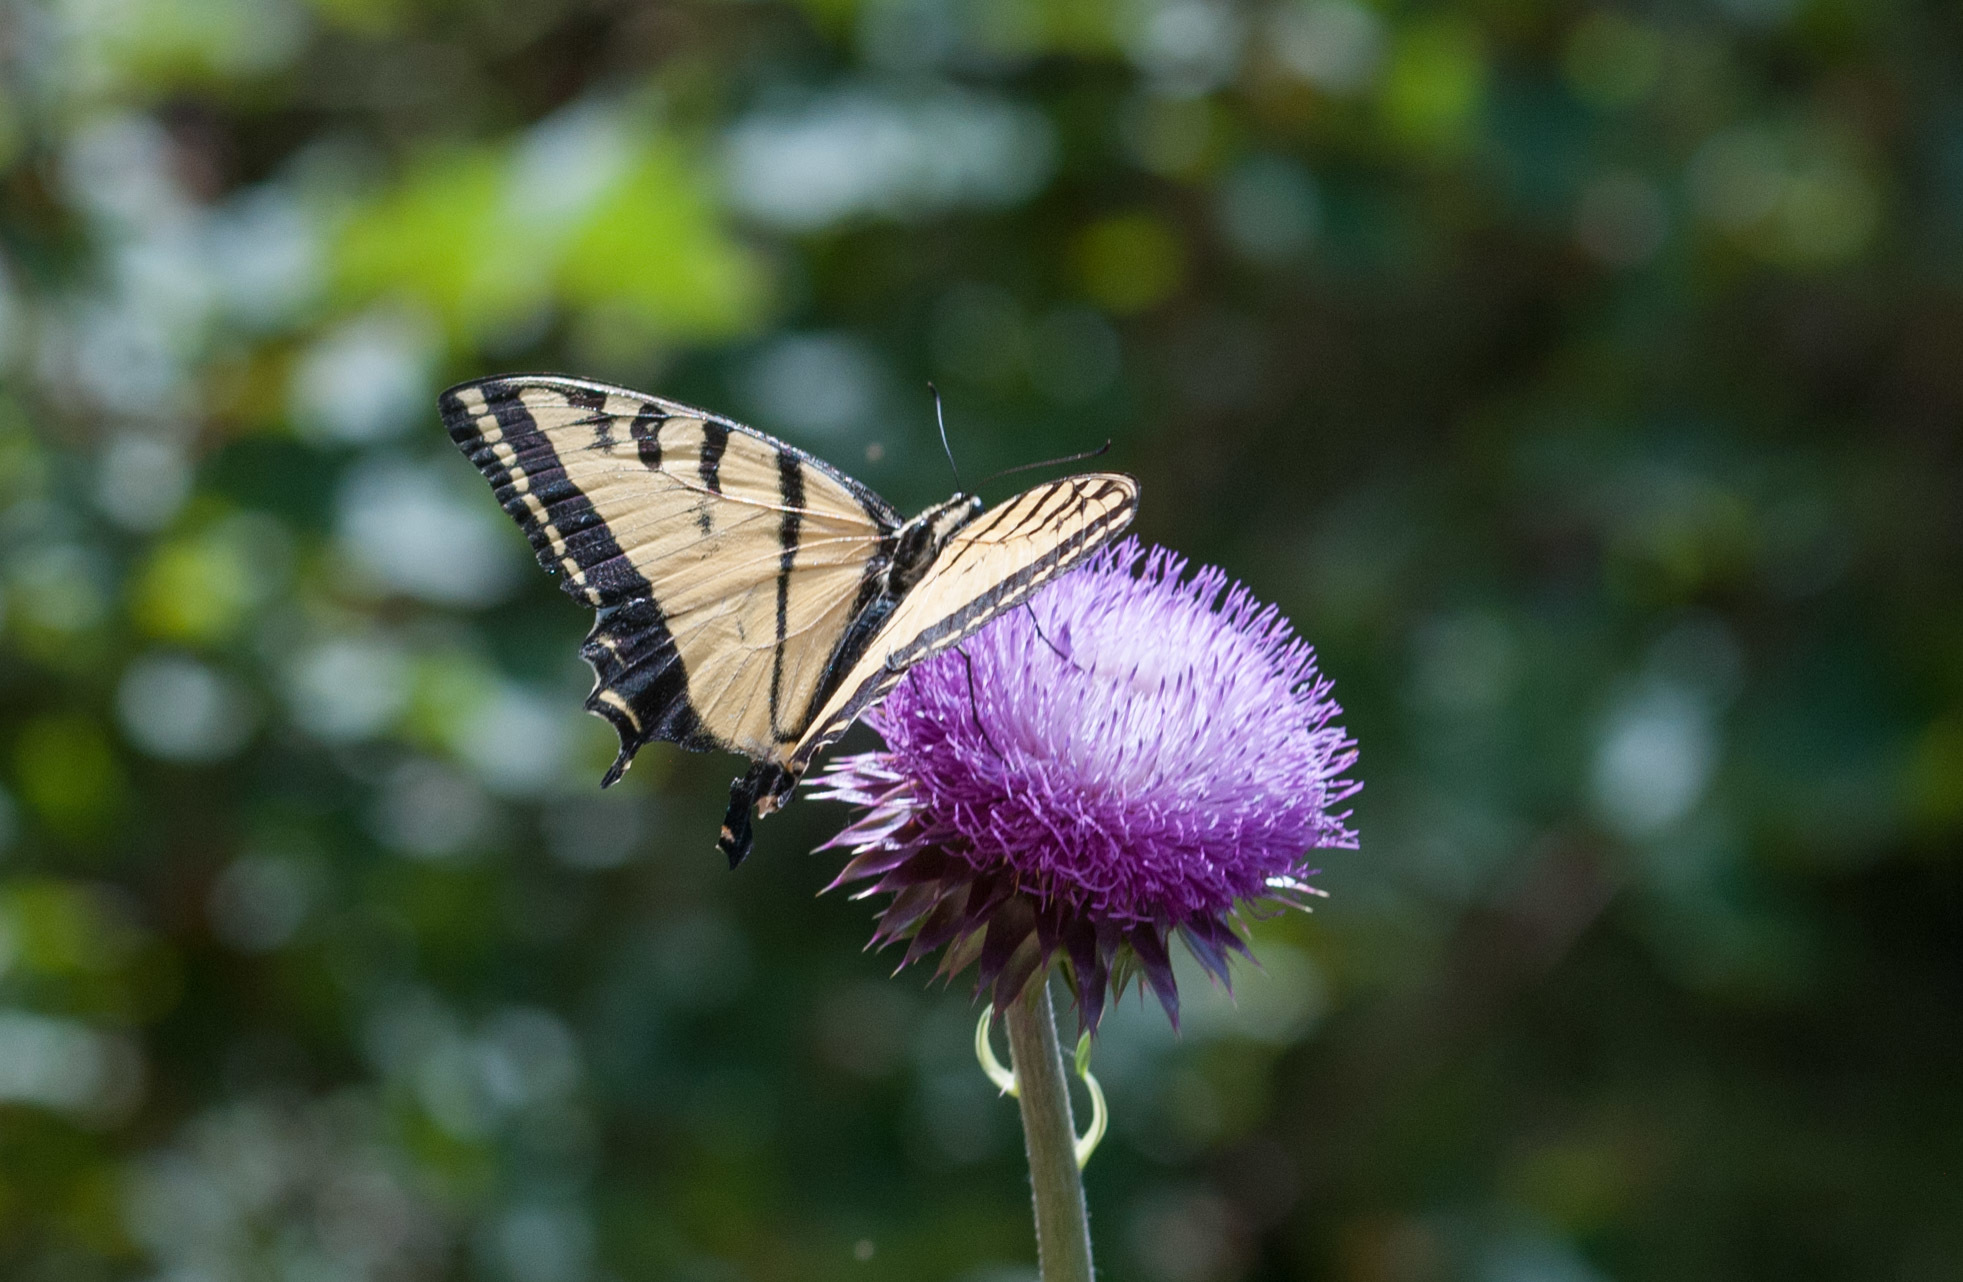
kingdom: Animalia
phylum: Arthropoda
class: Insecta
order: Lepidoptera
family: Papilionidae
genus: Papilio
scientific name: Papilio multicaudata
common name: Two-tailed tiger swallowtail
